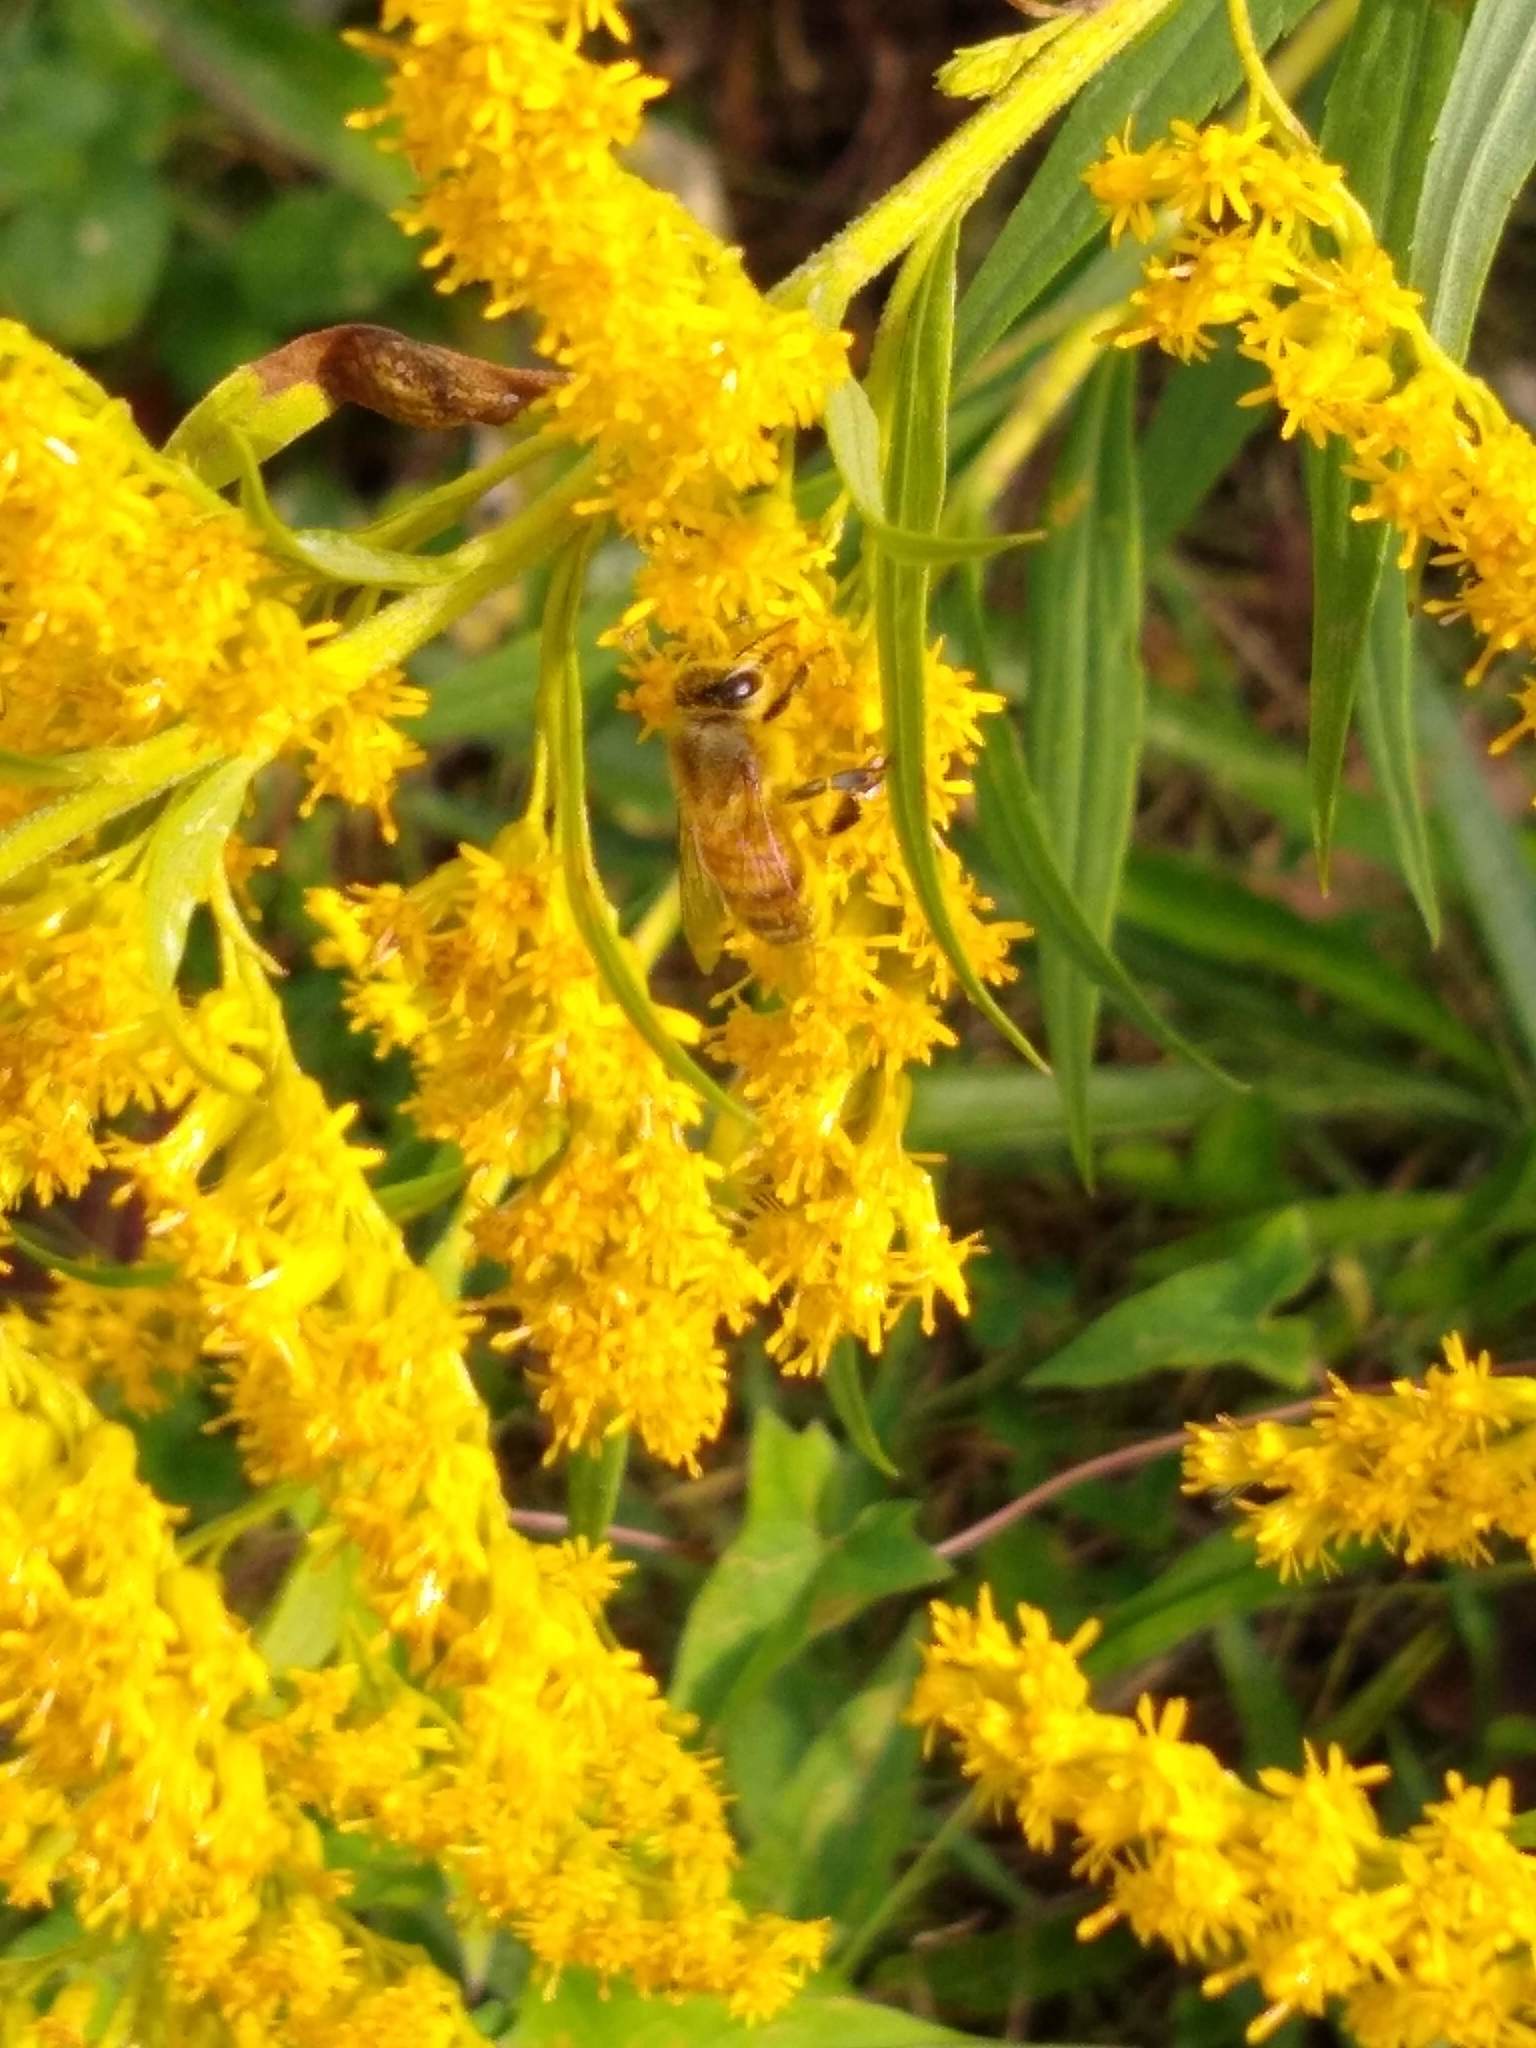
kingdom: Animalia
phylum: Arthropoda
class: Insecta
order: Hymenoptera
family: Apidae
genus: Apis
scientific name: Apis mellifera
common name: Honey bee
